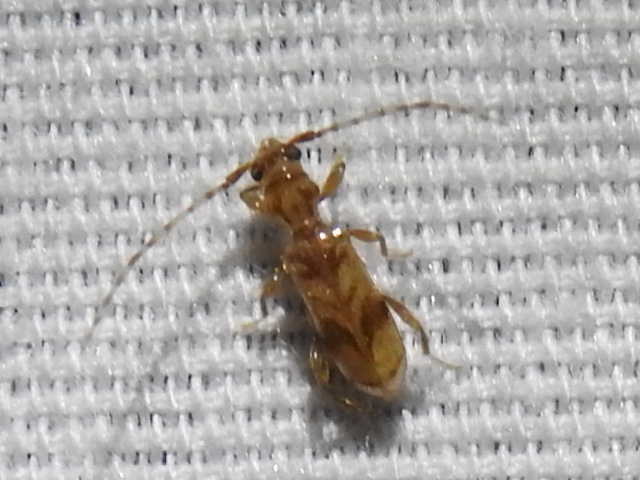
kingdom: Animalia
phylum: Arthropoda
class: Insecta
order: Coleoptera
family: Cerambycidae
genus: Obrium
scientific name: Obrium maculatum
